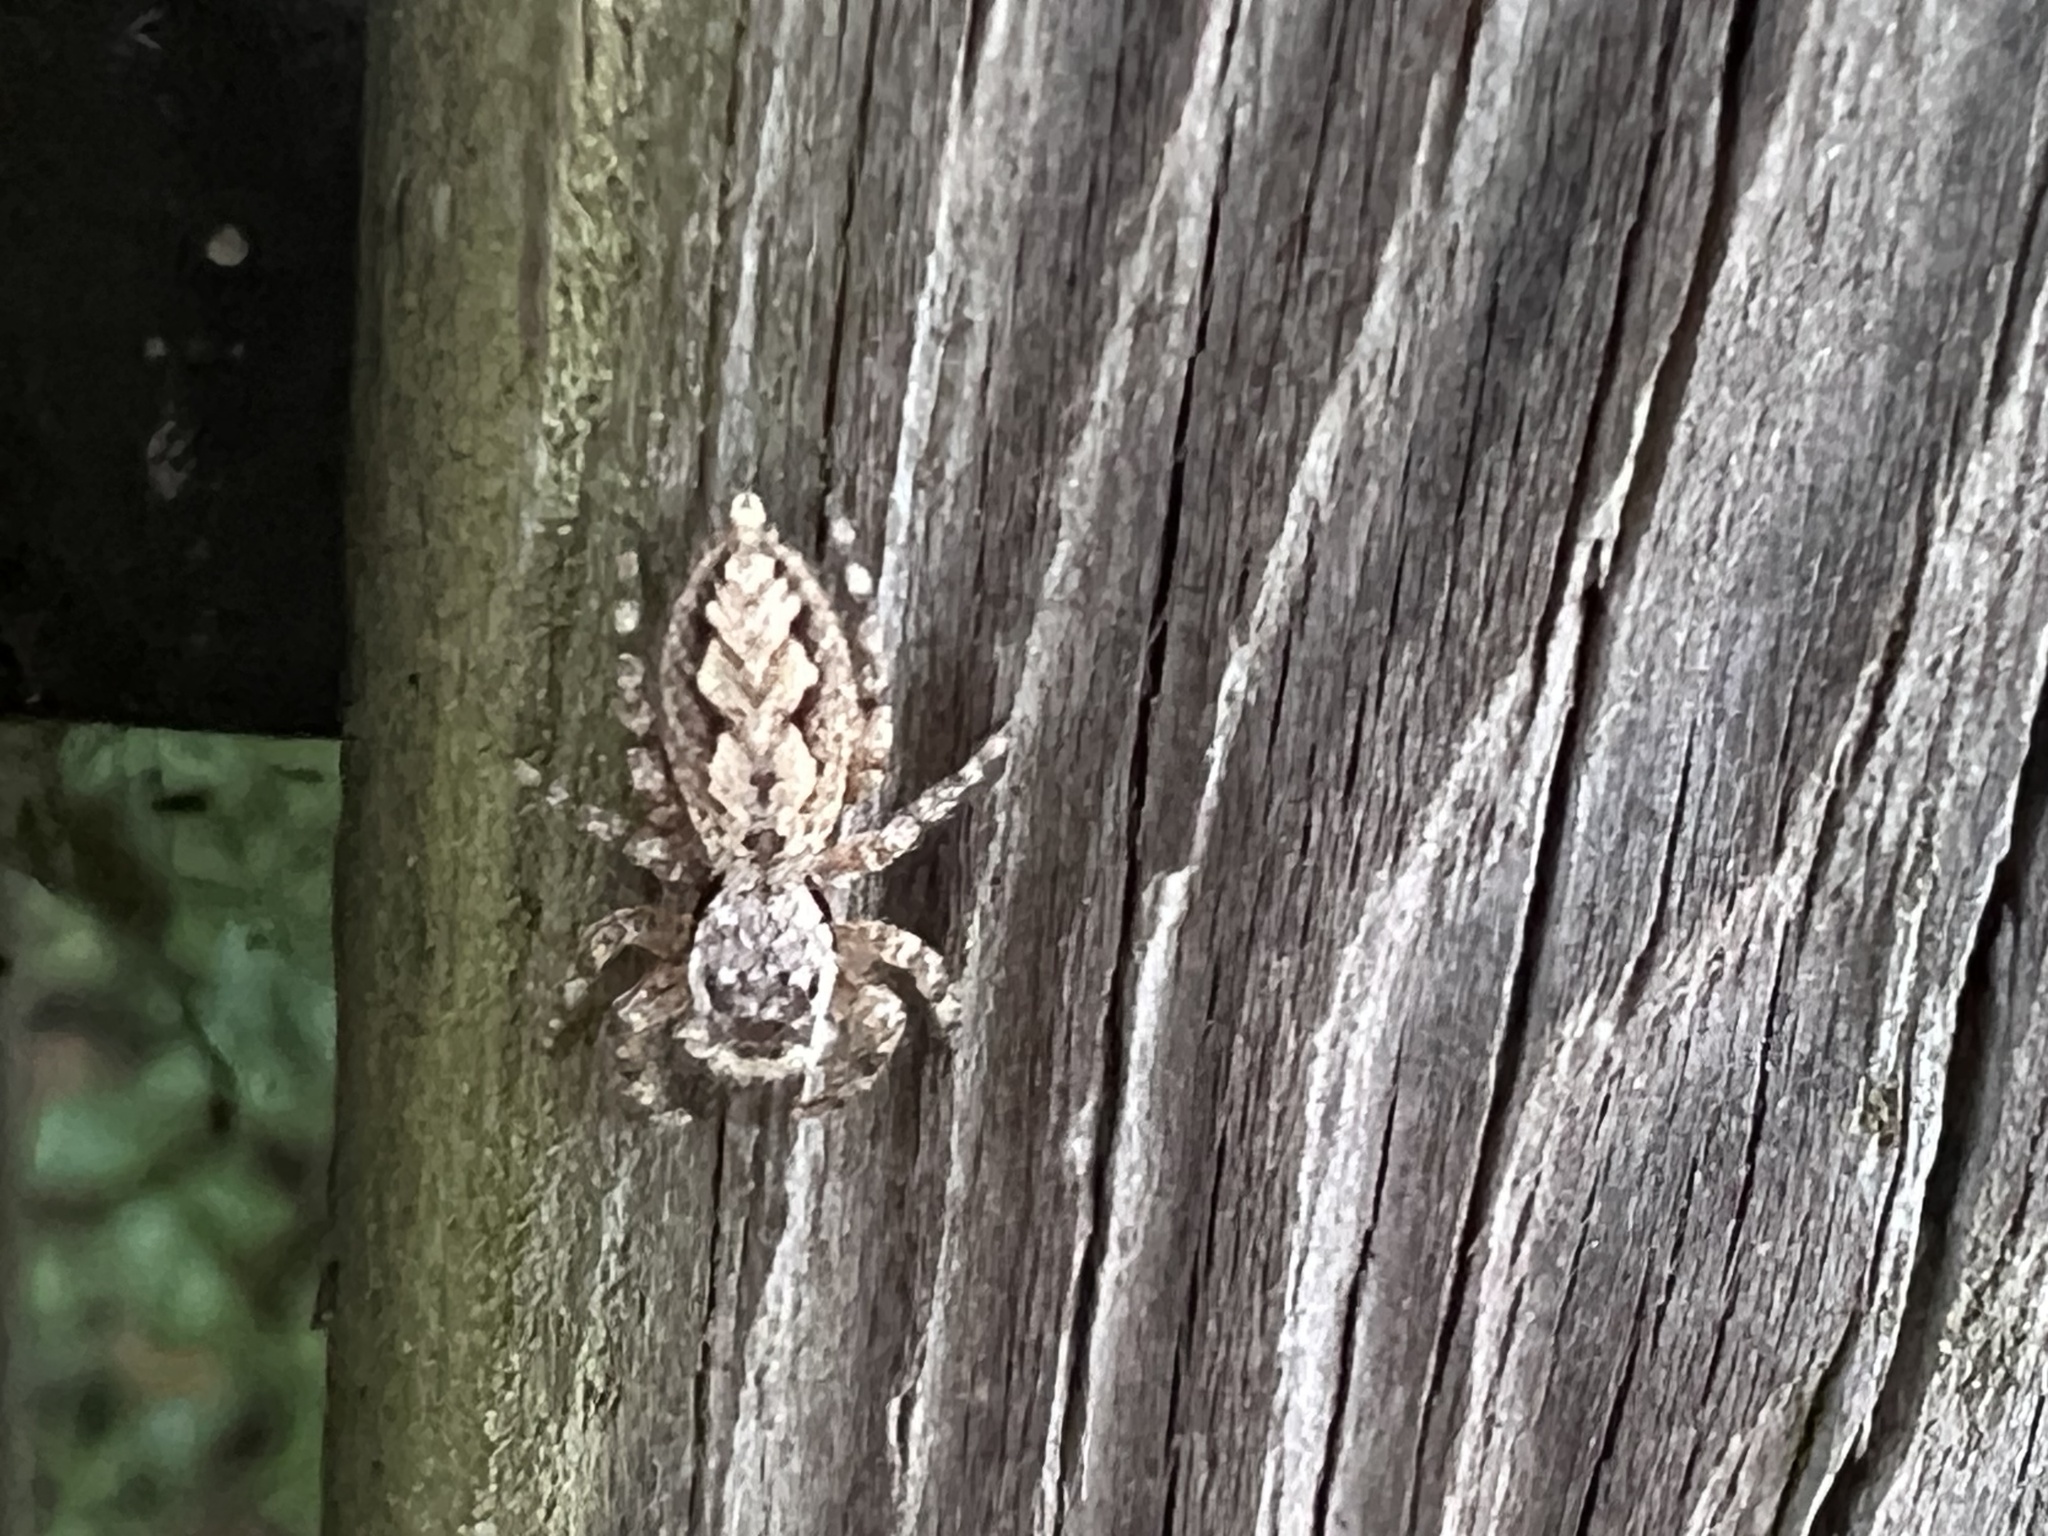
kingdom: Animalia
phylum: Arthropoda
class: Arachnida
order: Araneae
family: Salticidae
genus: Platycryptus
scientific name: Platycryptus undatus
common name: Tan jumping spider
